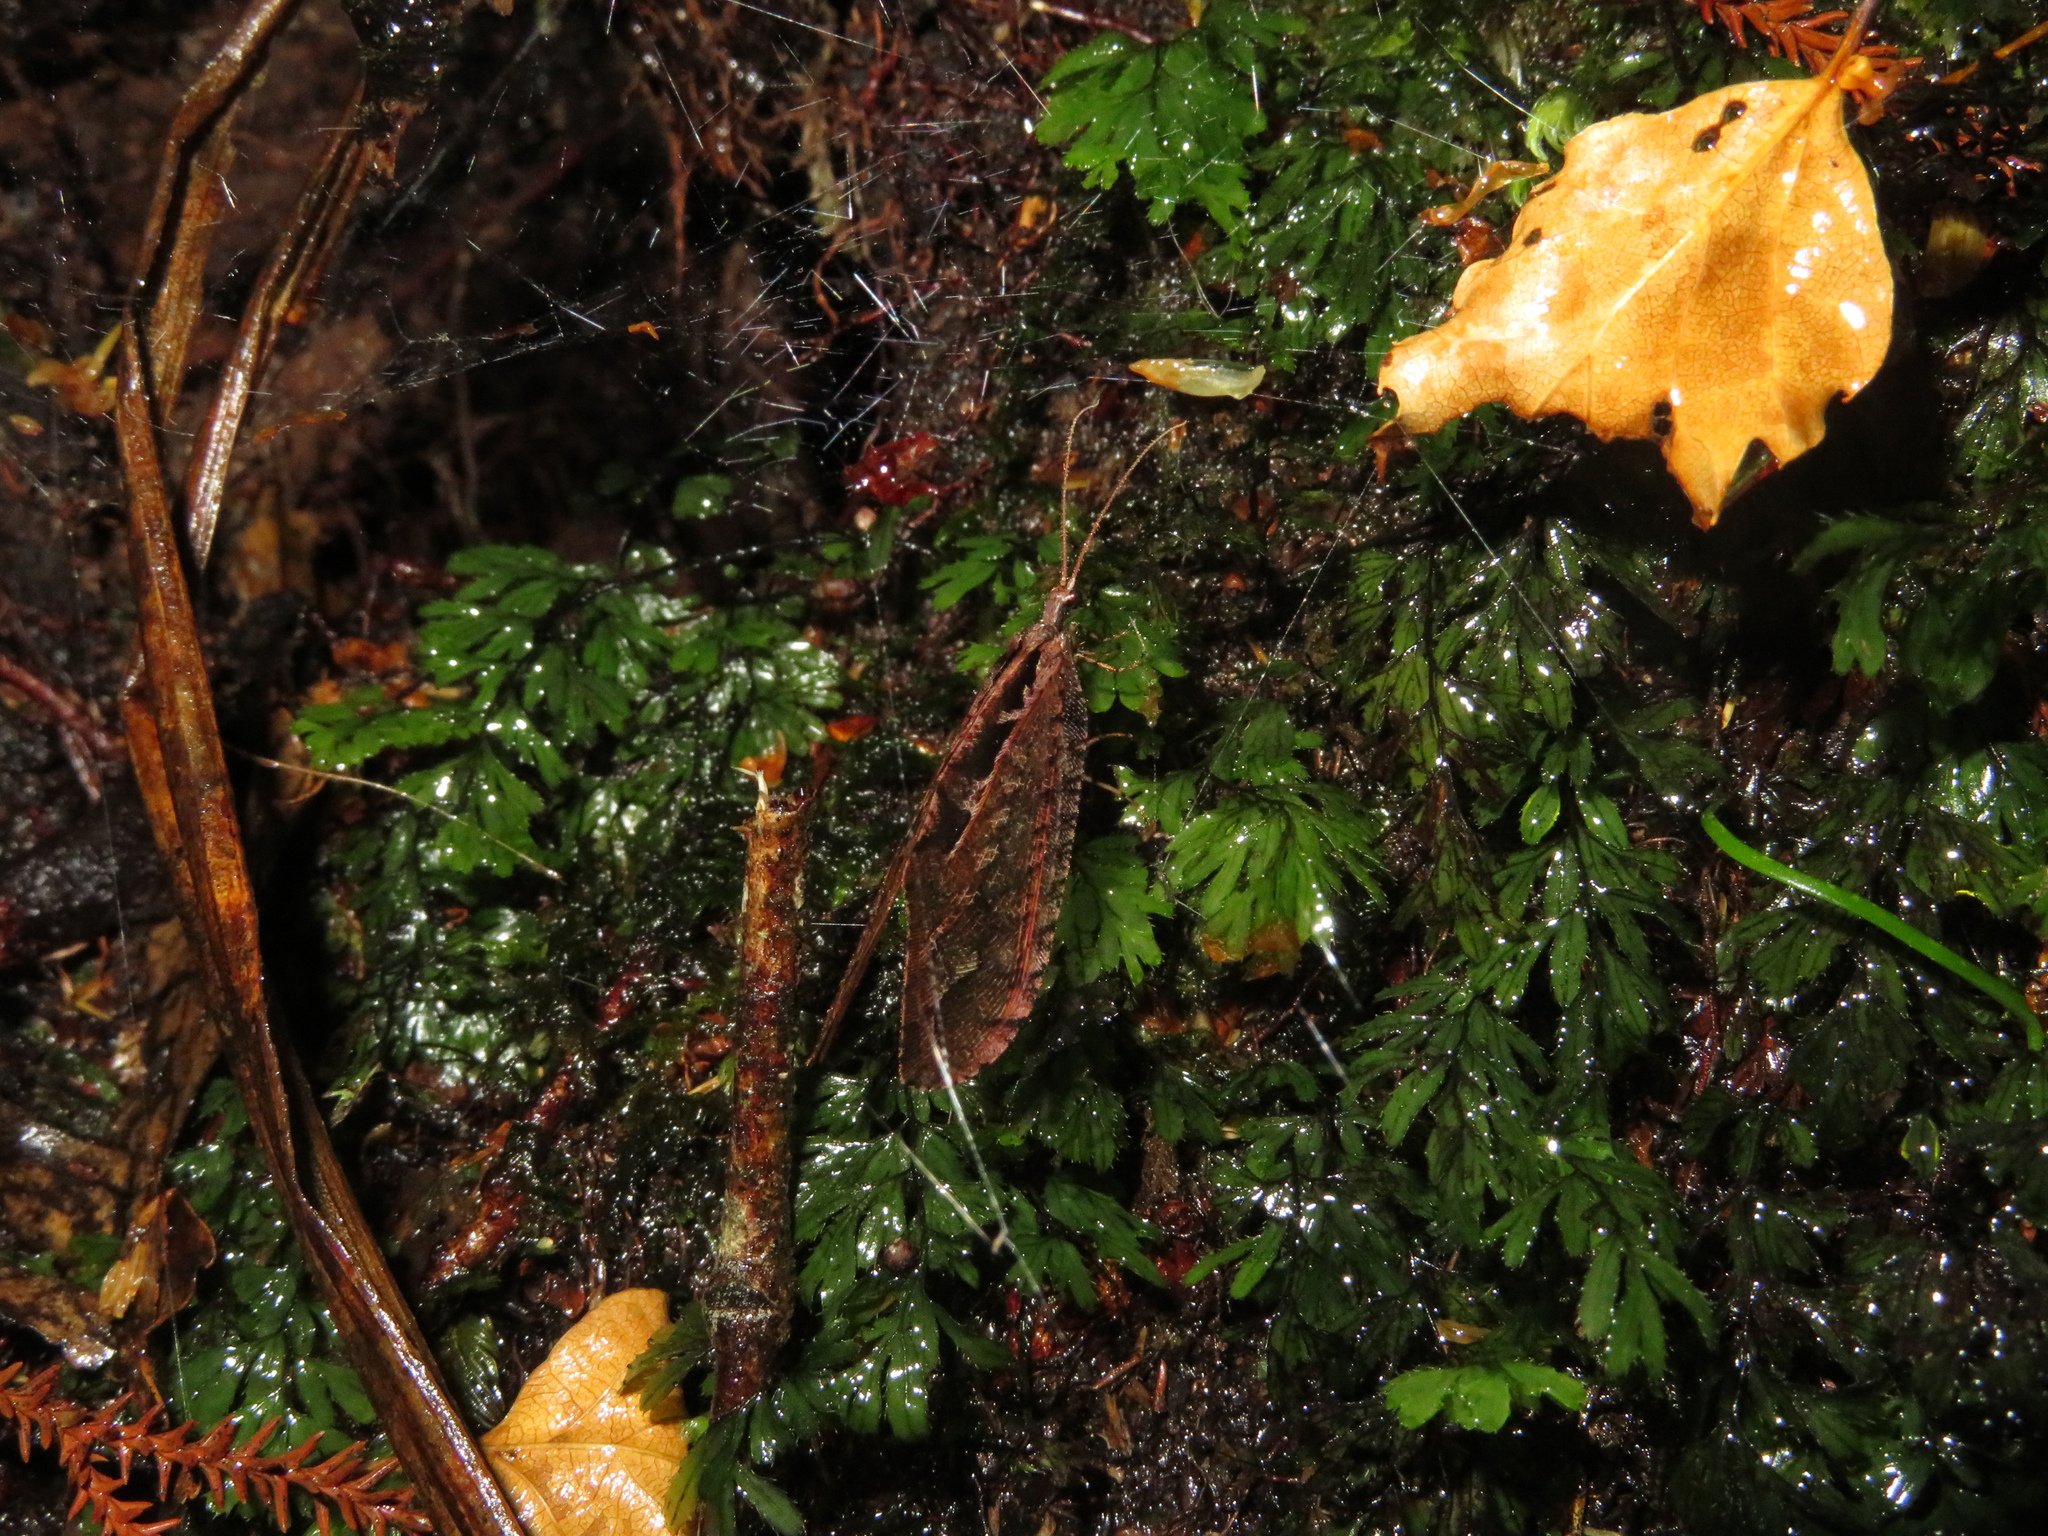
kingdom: Animalia
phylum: Arthropoda
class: Insecta
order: Neuroptera
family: Osmylidae
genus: Kempynus
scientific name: Kempynus incisus
